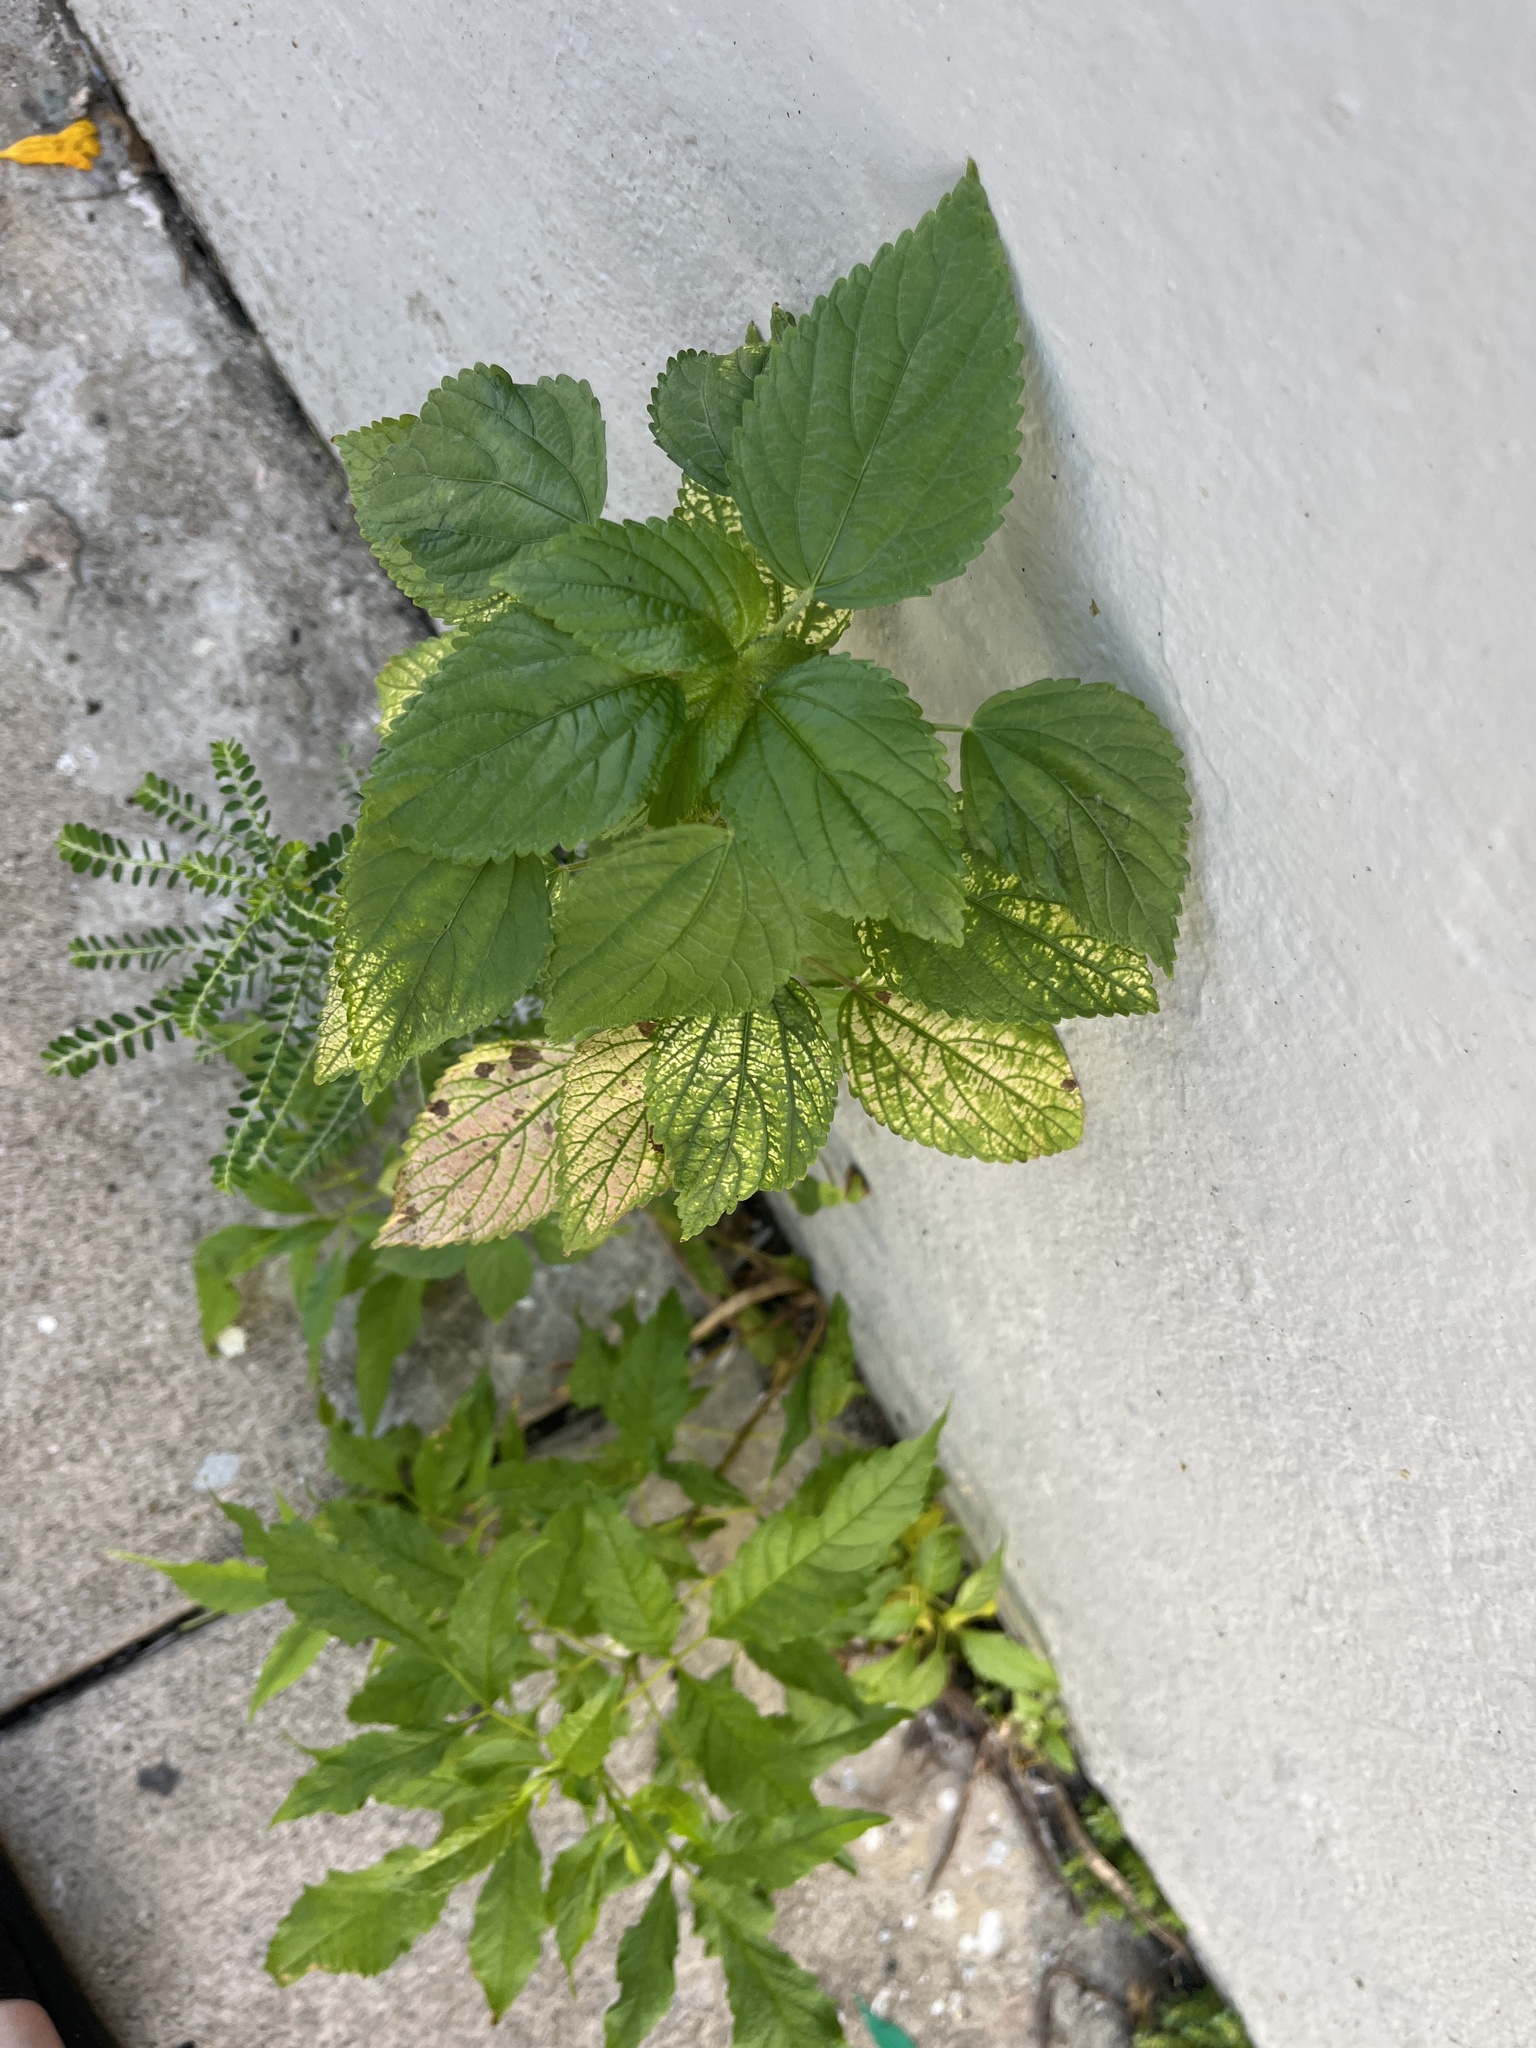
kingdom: Plantae
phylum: Tracheophyta
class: Magnoliopsida
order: Malpighiales
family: Euphorbiaceae
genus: Acalypha
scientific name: Acalypha poiretii
